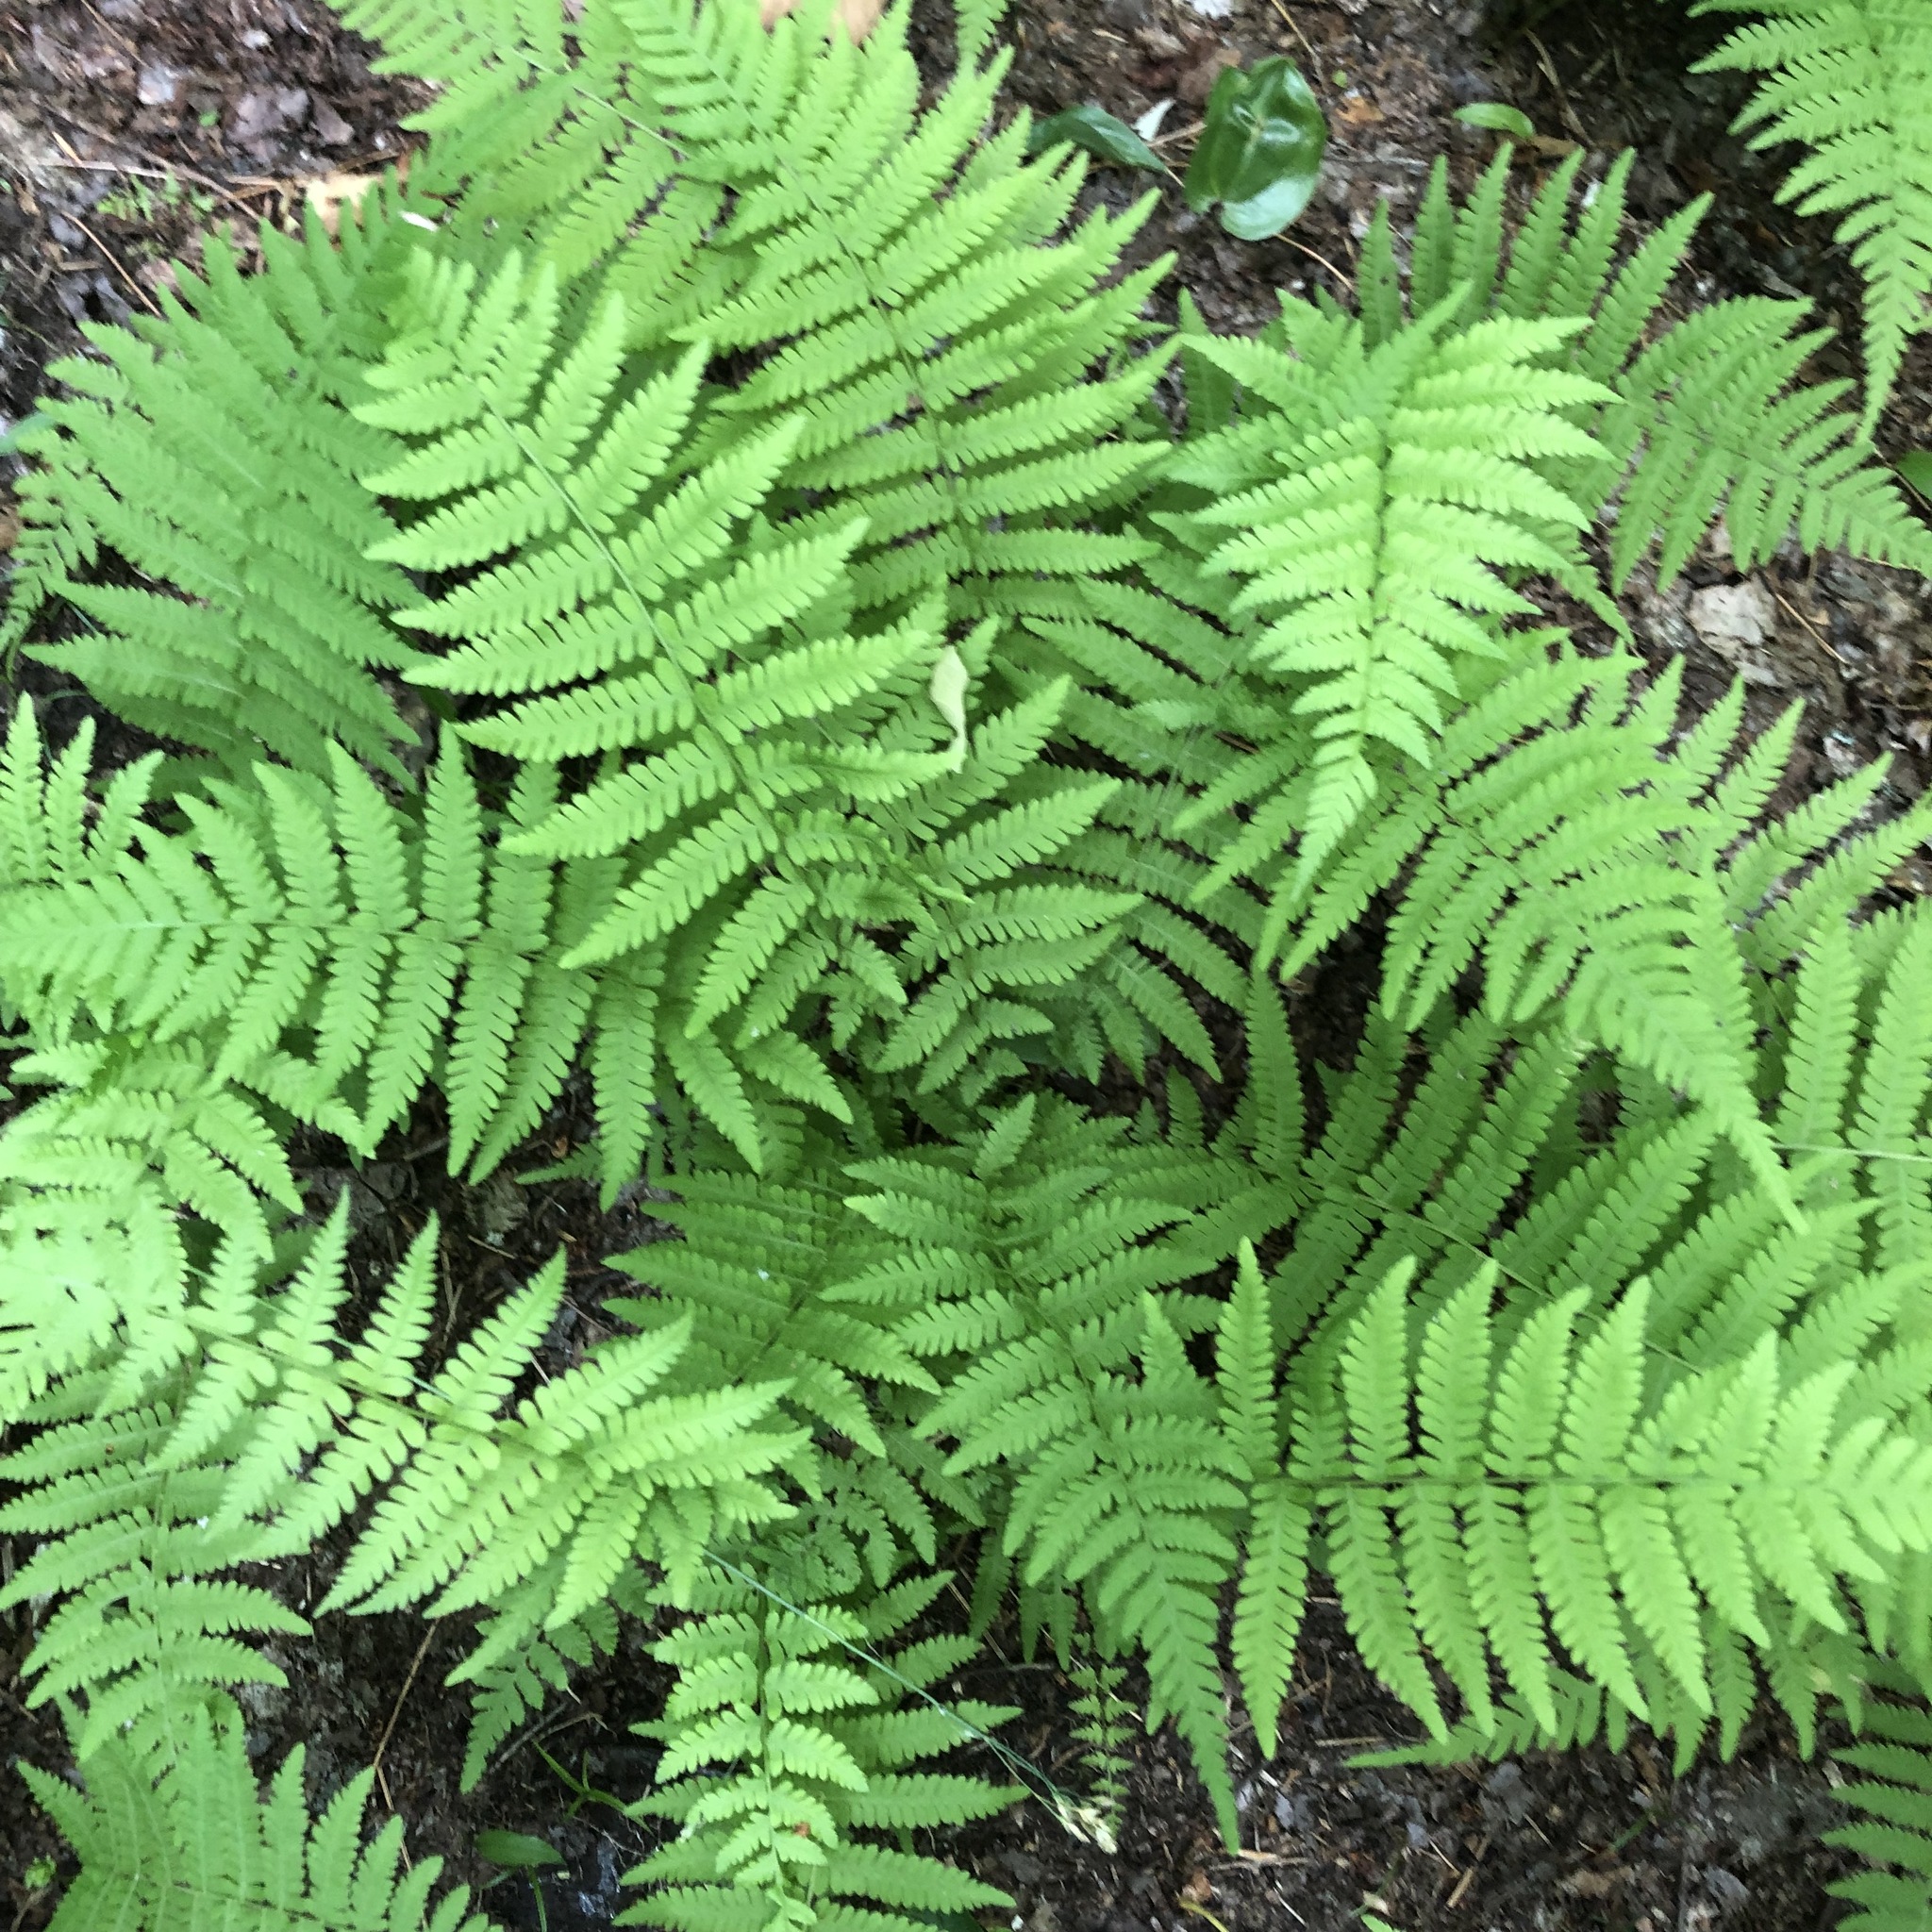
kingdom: Plantae
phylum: Tracheophyta
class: Polypodiopsida
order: Polypodiales
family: Thelypteridaceae
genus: Amauropelta
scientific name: Amauropelta noveboracensis
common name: New york fern
